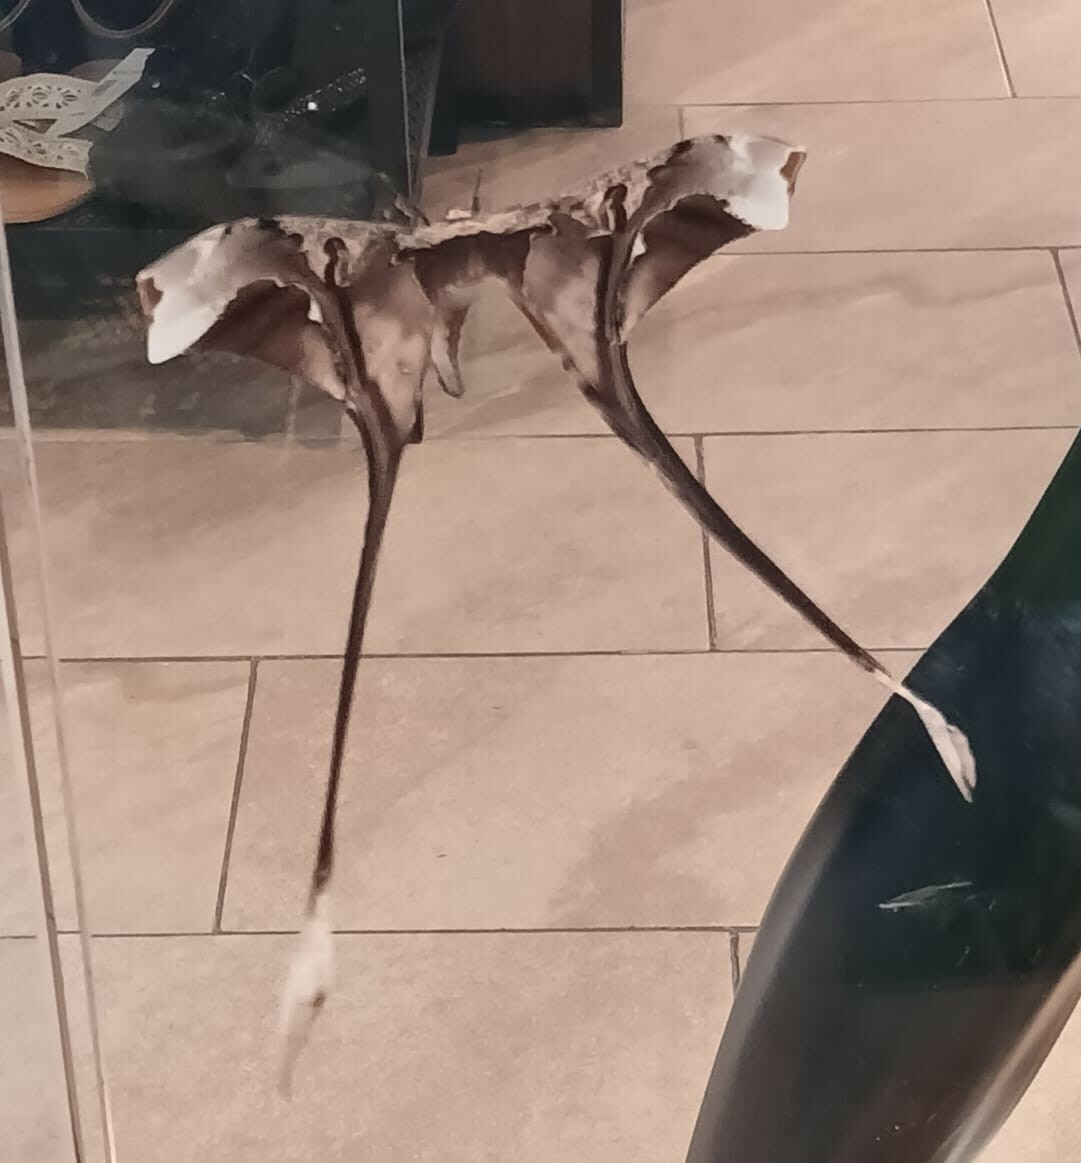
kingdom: Animalia
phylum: Arthropoda
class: Insecta
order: Lepidoptera
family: Saturniidae
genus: Copiopteryx
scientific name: Copiopteryx semiramis
